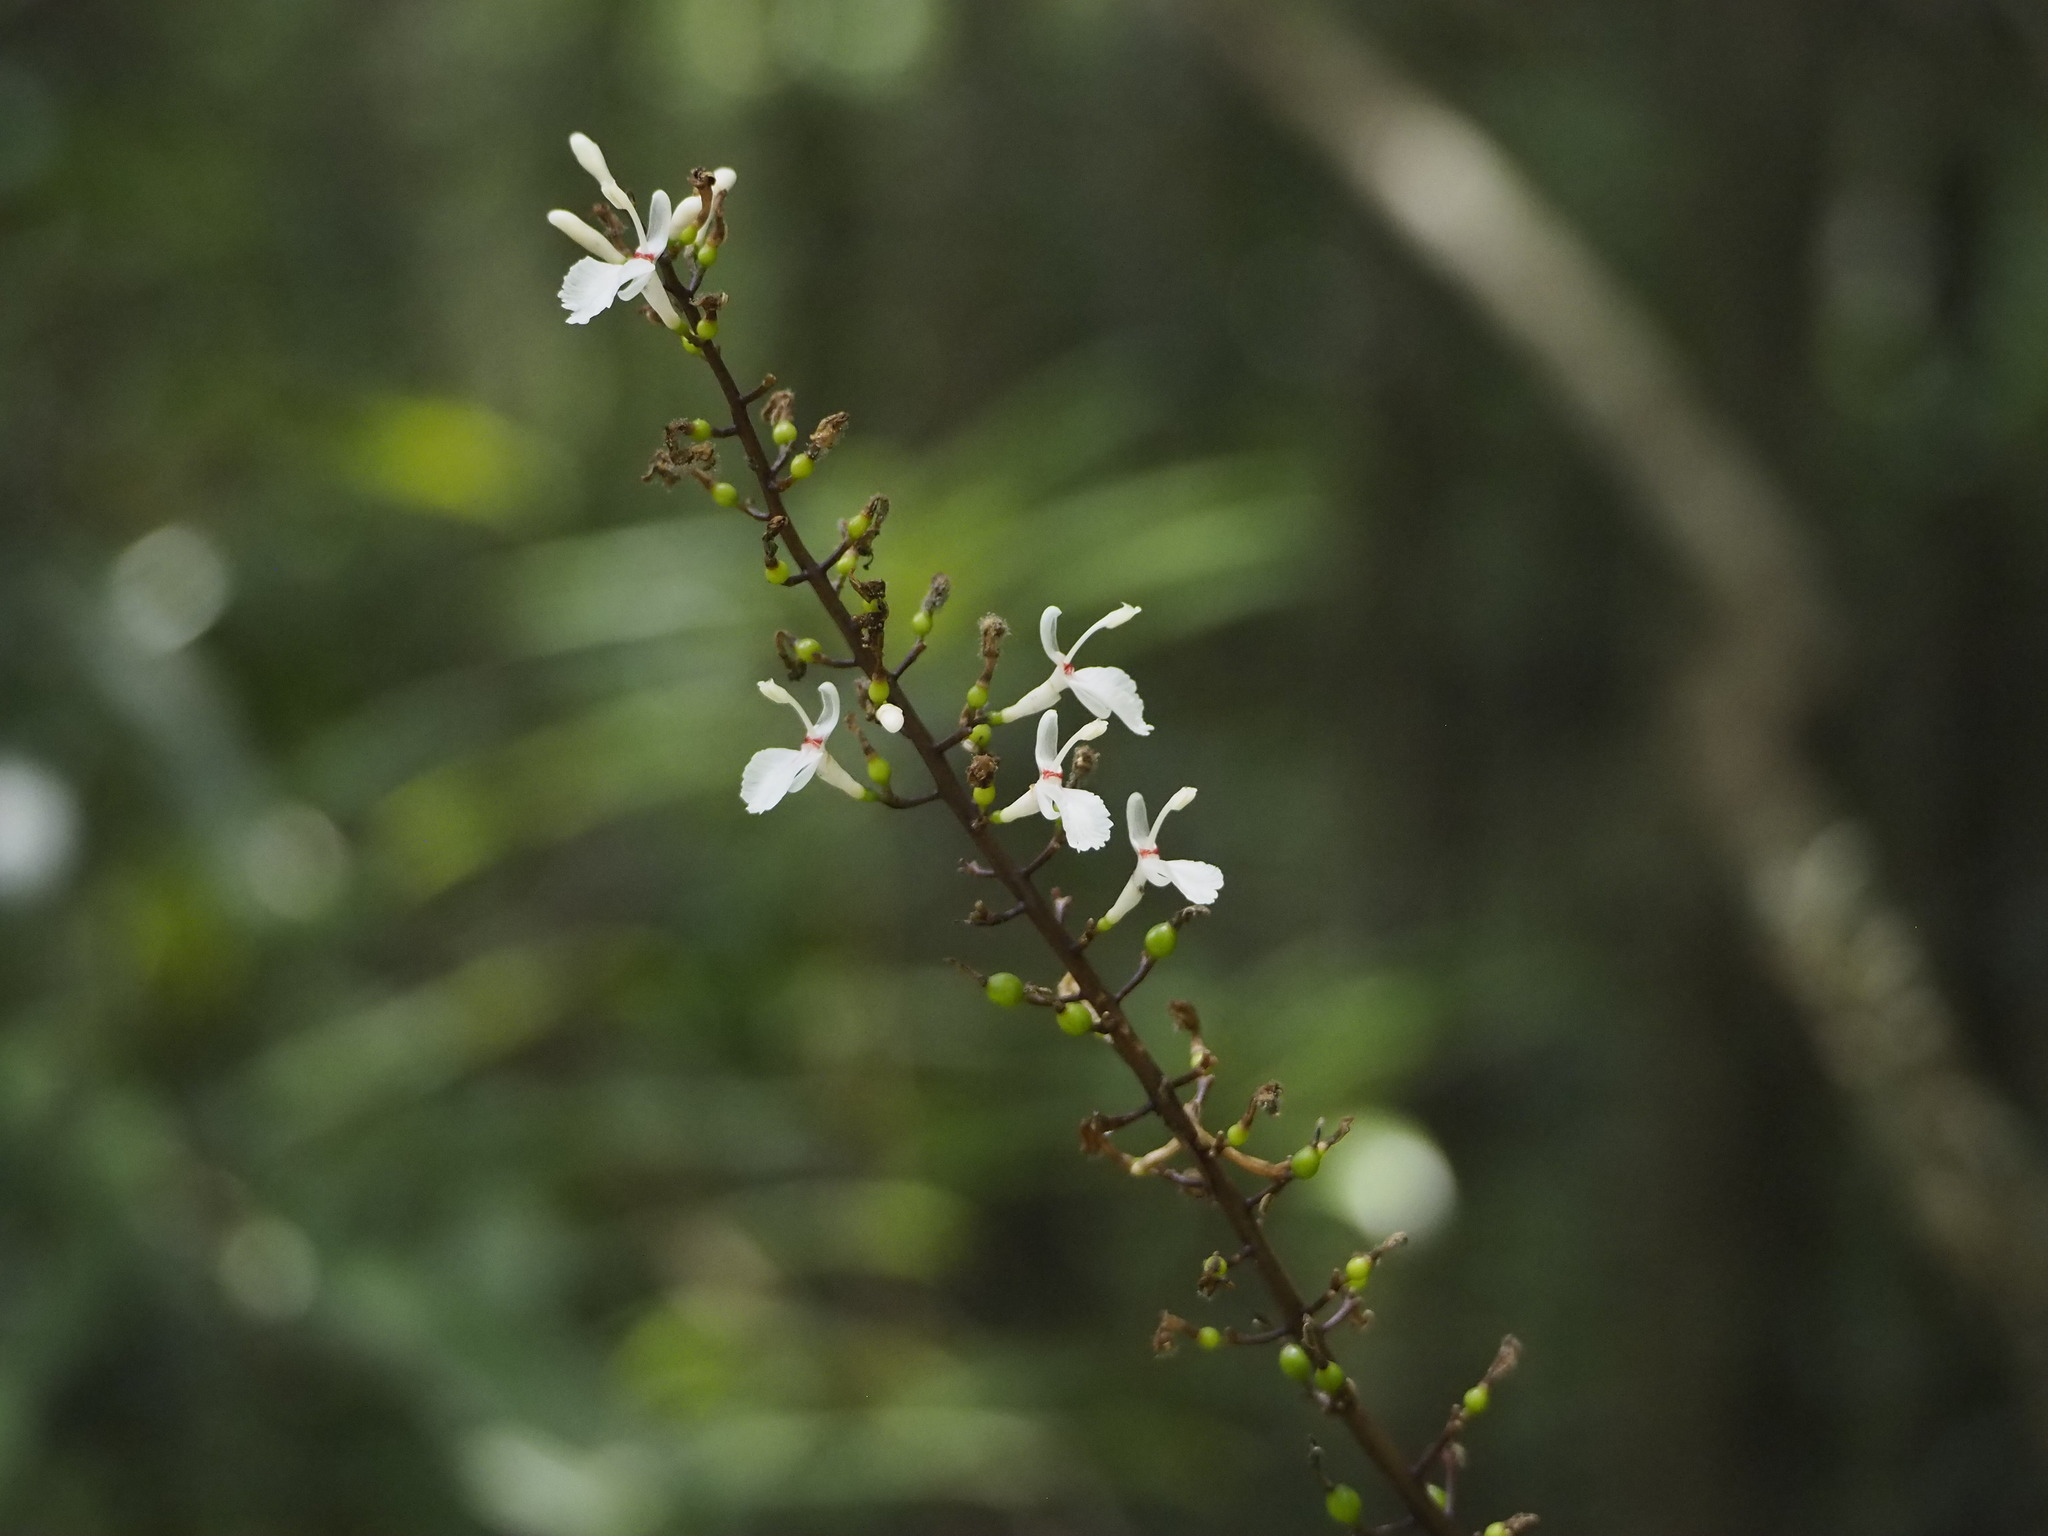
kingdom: Plantae
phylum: Tracheophyta
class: Liliopsida
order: Zingiberales
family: Zingiberaceae
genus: Alpinia
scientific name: Alpinia intermedia
